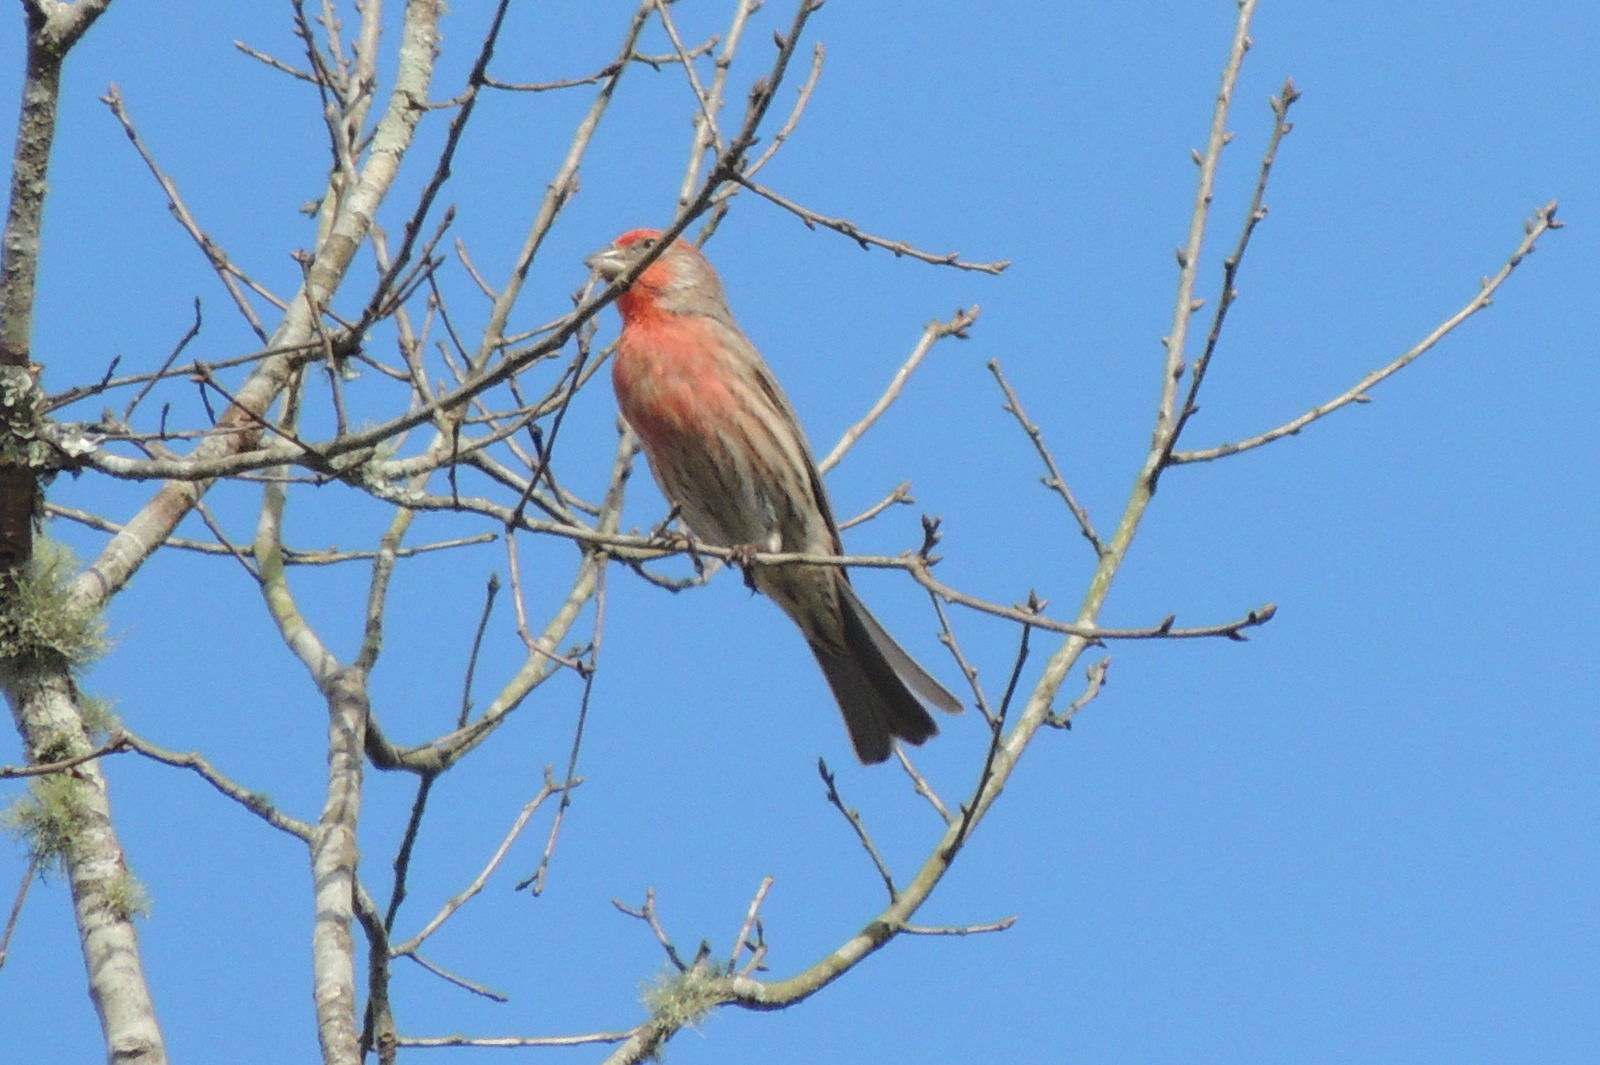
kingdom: Animalia
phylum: Chordata
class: Aves
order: Passeriformes
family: Fringillidae
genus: Haemorhous
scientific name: Haemorhous mexicanus
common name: House finch
